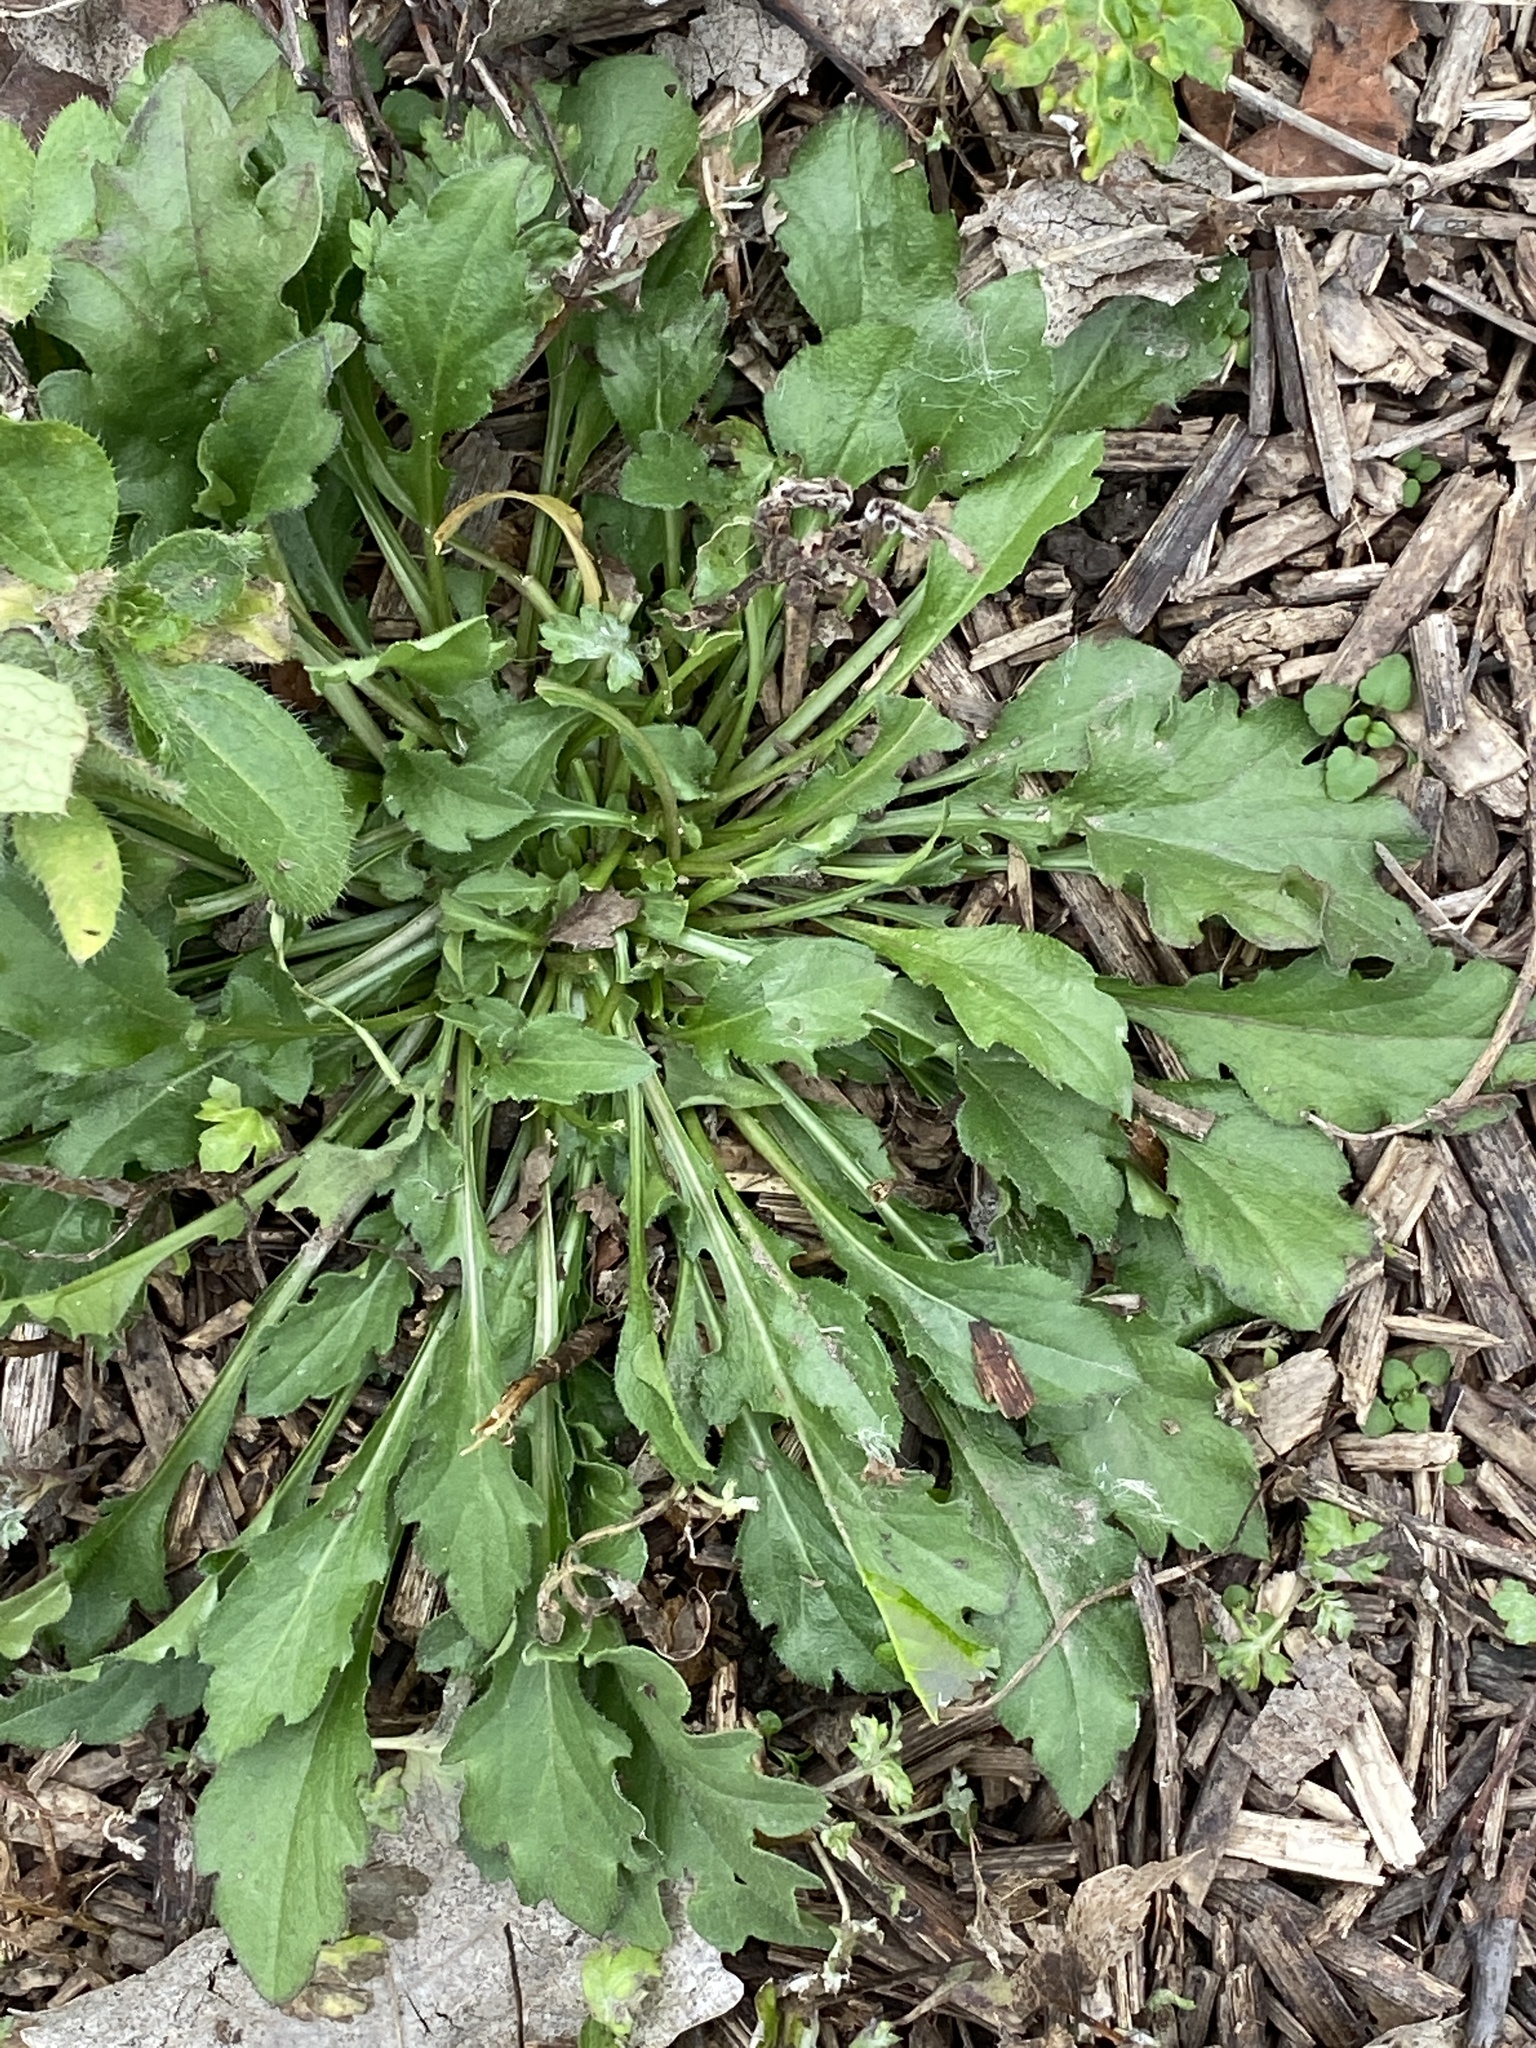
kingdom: Plantae
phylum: Tracheophyta
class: Magnoliopsida
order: Asterales
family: Asteraceae
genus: Erigeron
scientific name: Erigeron canadensis
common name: Canadian fleabane
